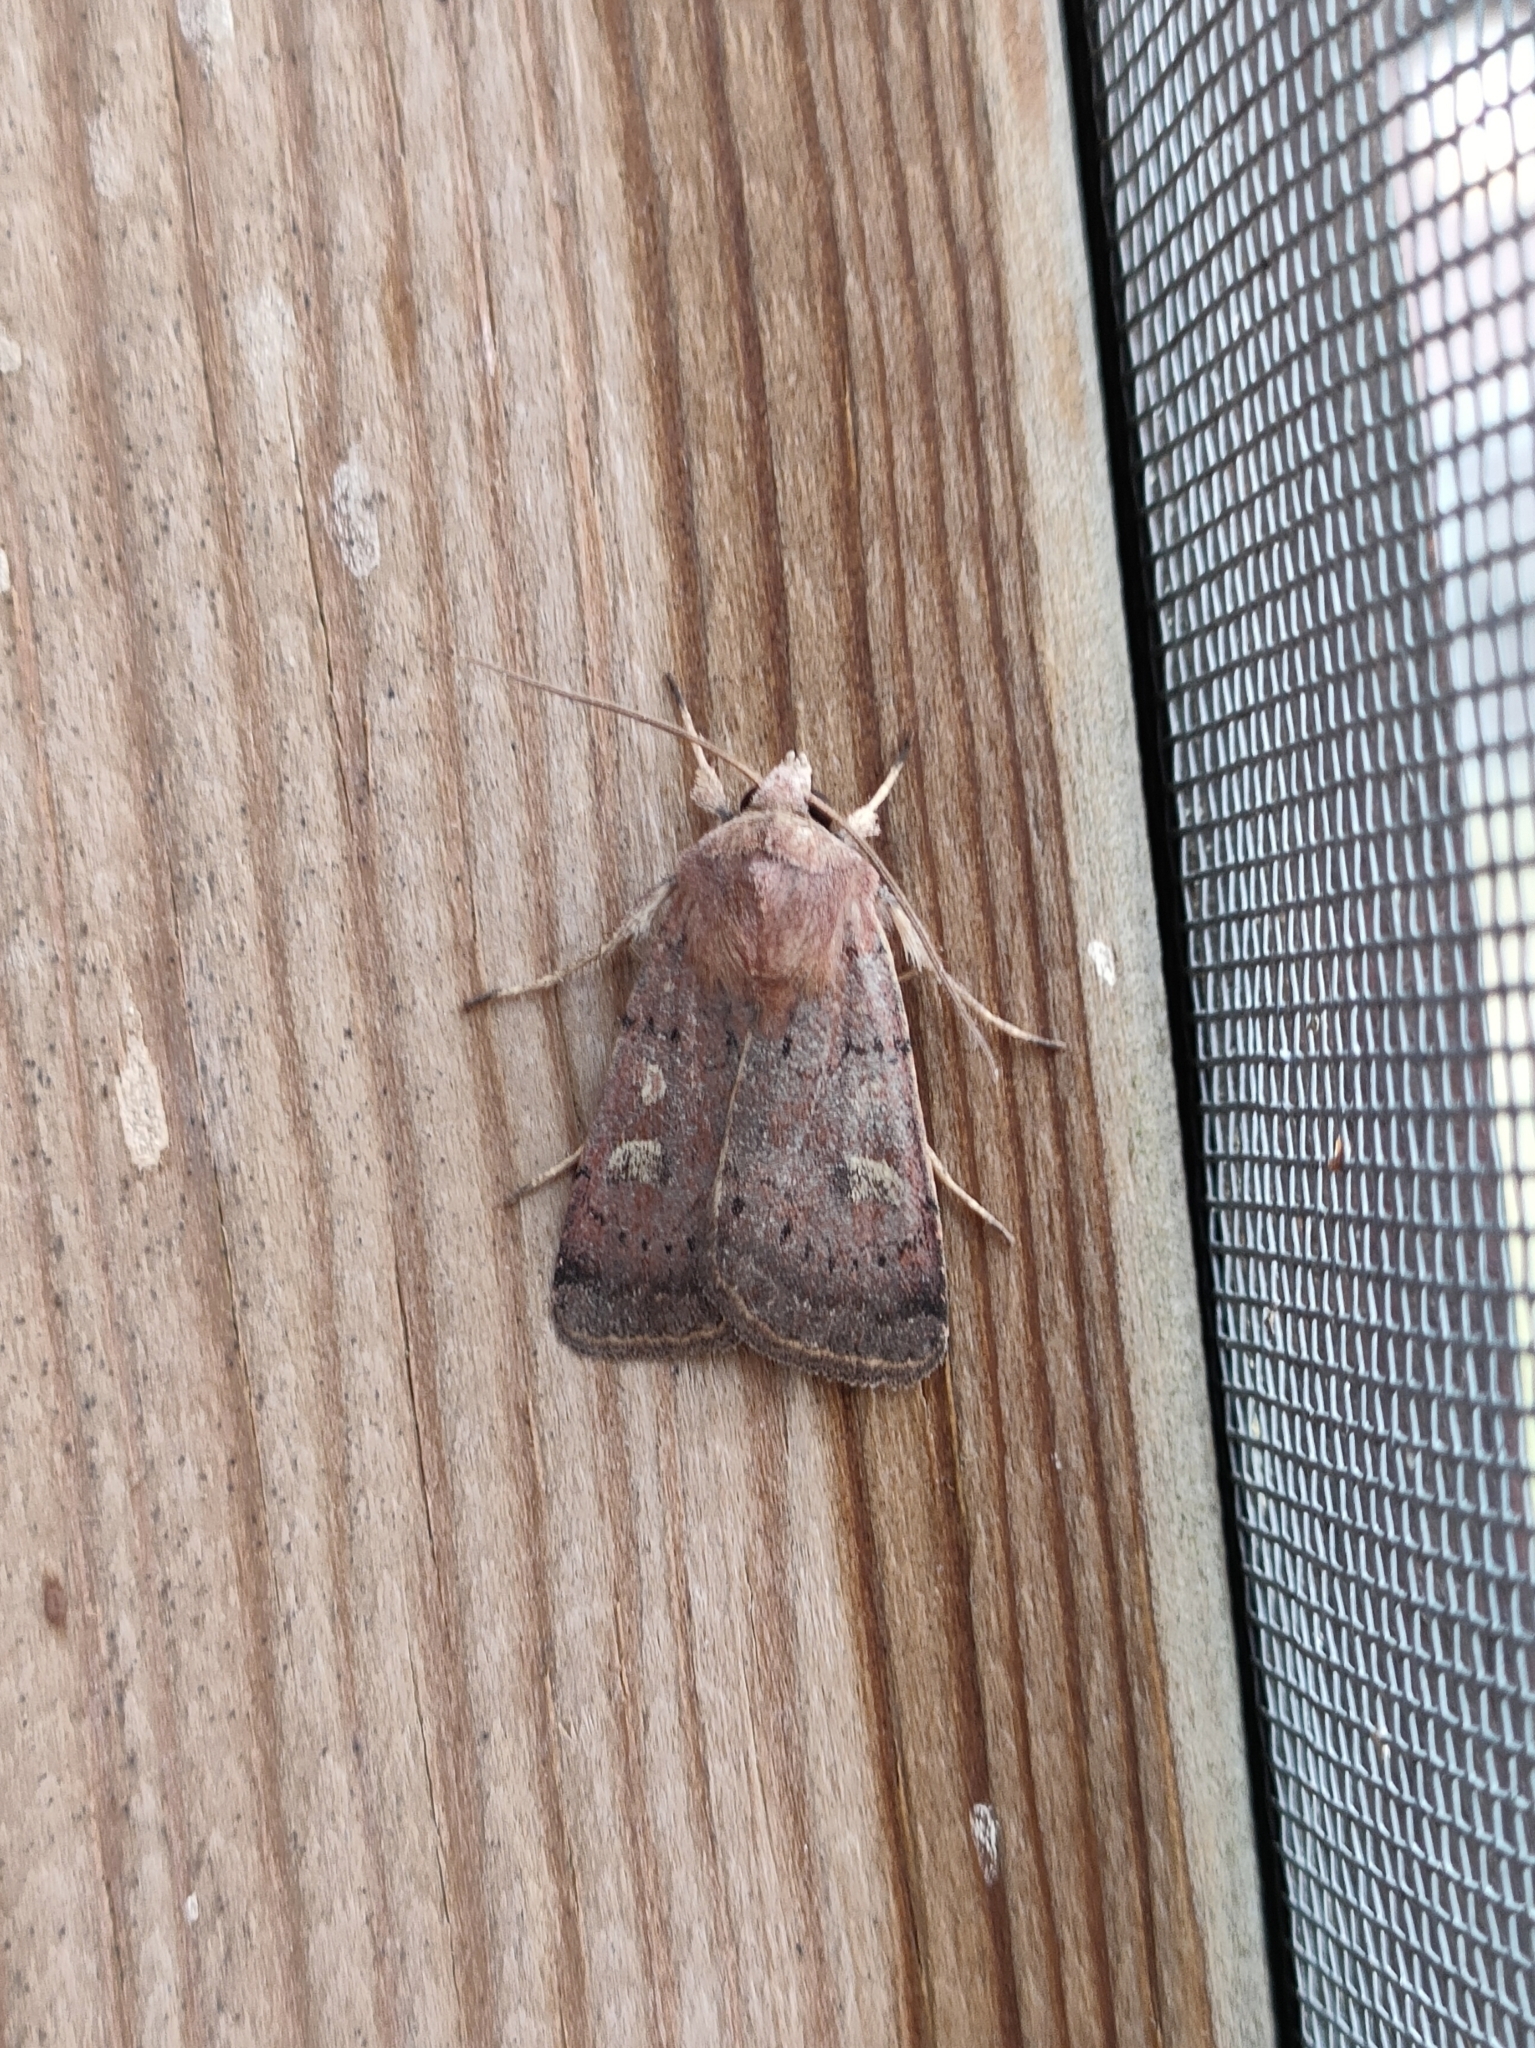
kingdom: Animalia
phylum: Arthropoda
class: Insecta
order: Lepidoptera
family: Noctuidae
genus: Xestia
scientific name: Xestia xanthographa
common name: Square-spot rustic
